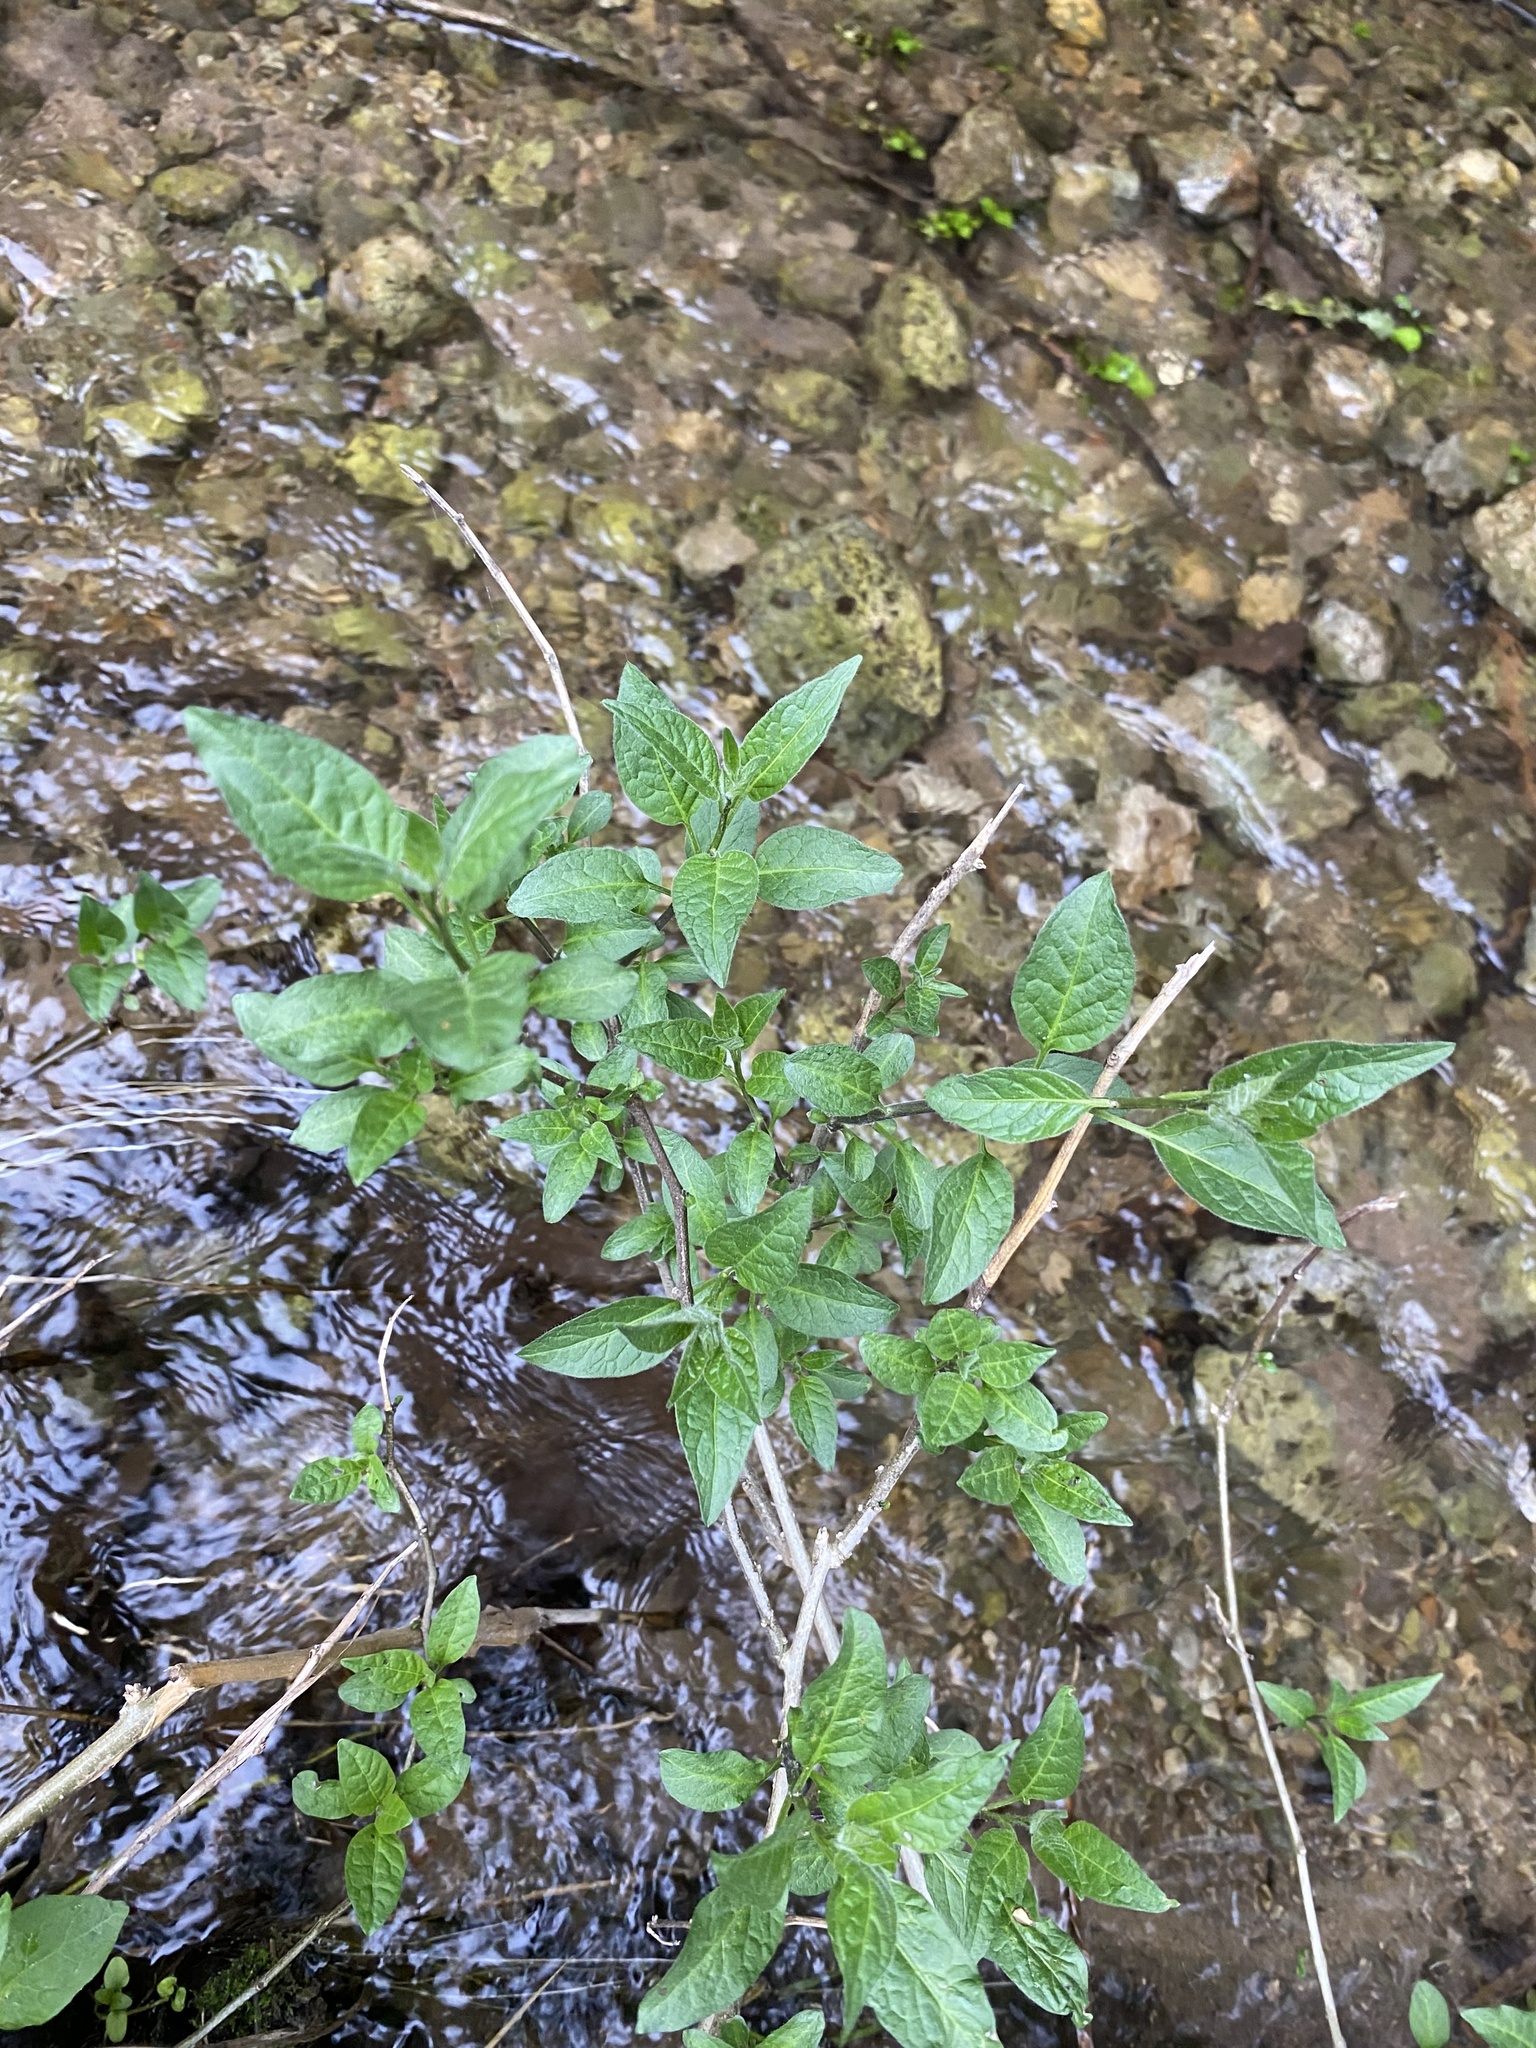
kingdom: Plantae
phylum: Tracheophyta
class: Magnoliopsida
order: Solanales
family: Solanaceae
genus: Solanum
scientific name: Solanum dulcamara
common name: Climbing nightshade
